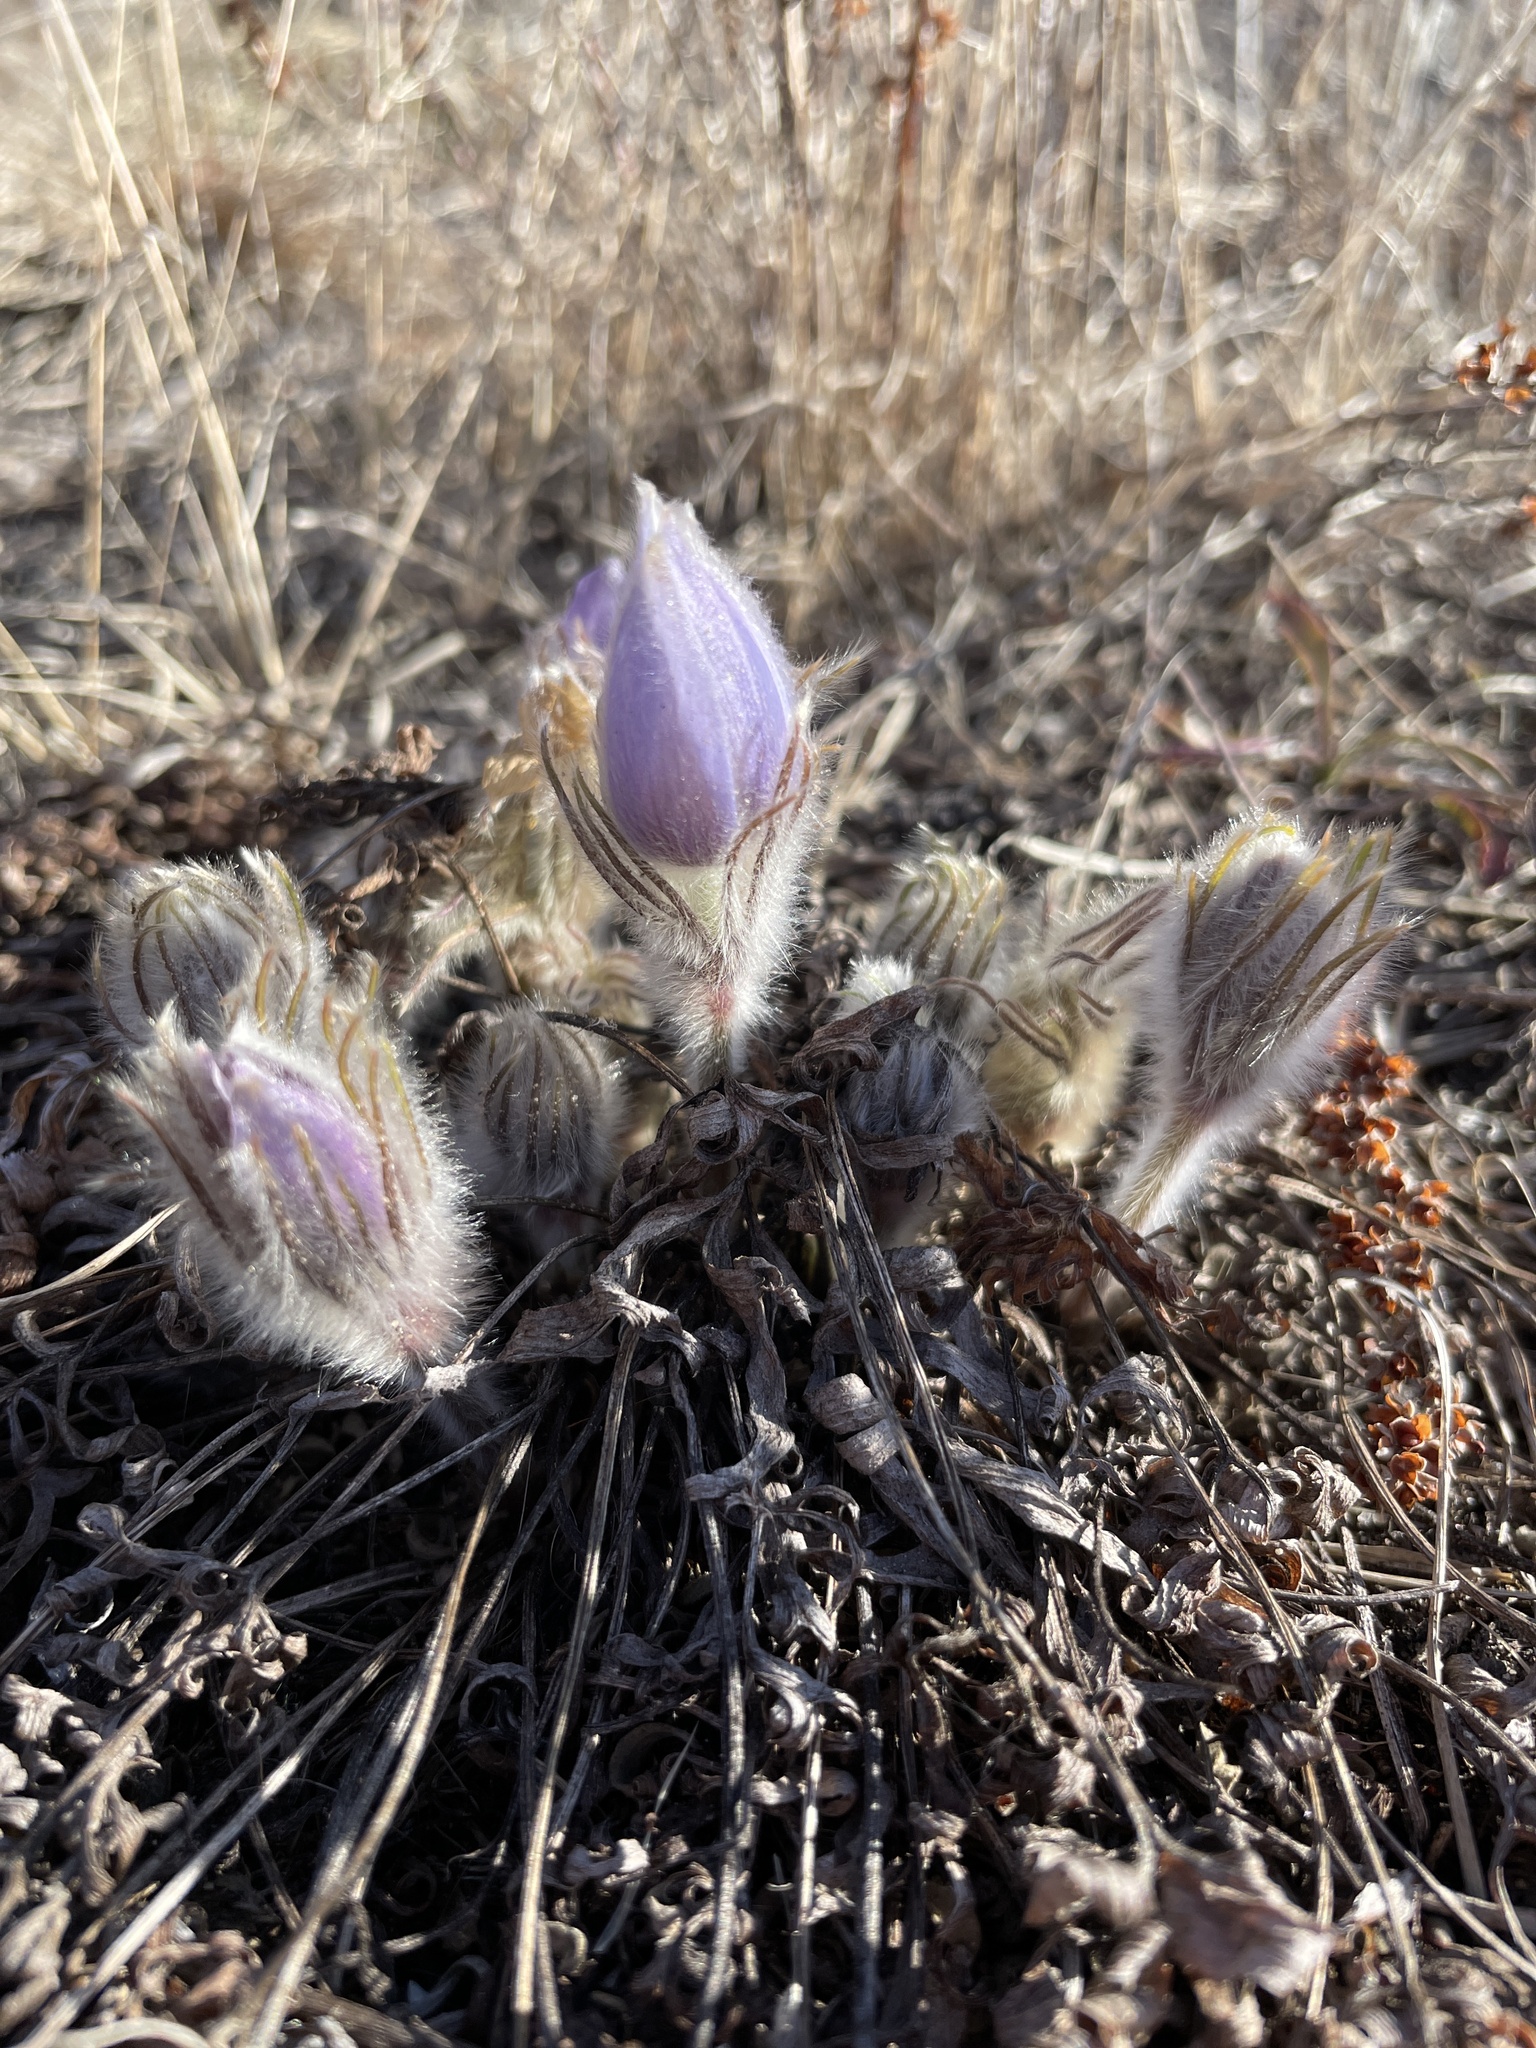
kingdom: Plantae
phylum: Tracheophyta
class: Magnoliopsida
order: Ranunculales
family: Ranunculaceae
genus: Pulsatilla
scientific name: Pulsatilla nuttalliana
